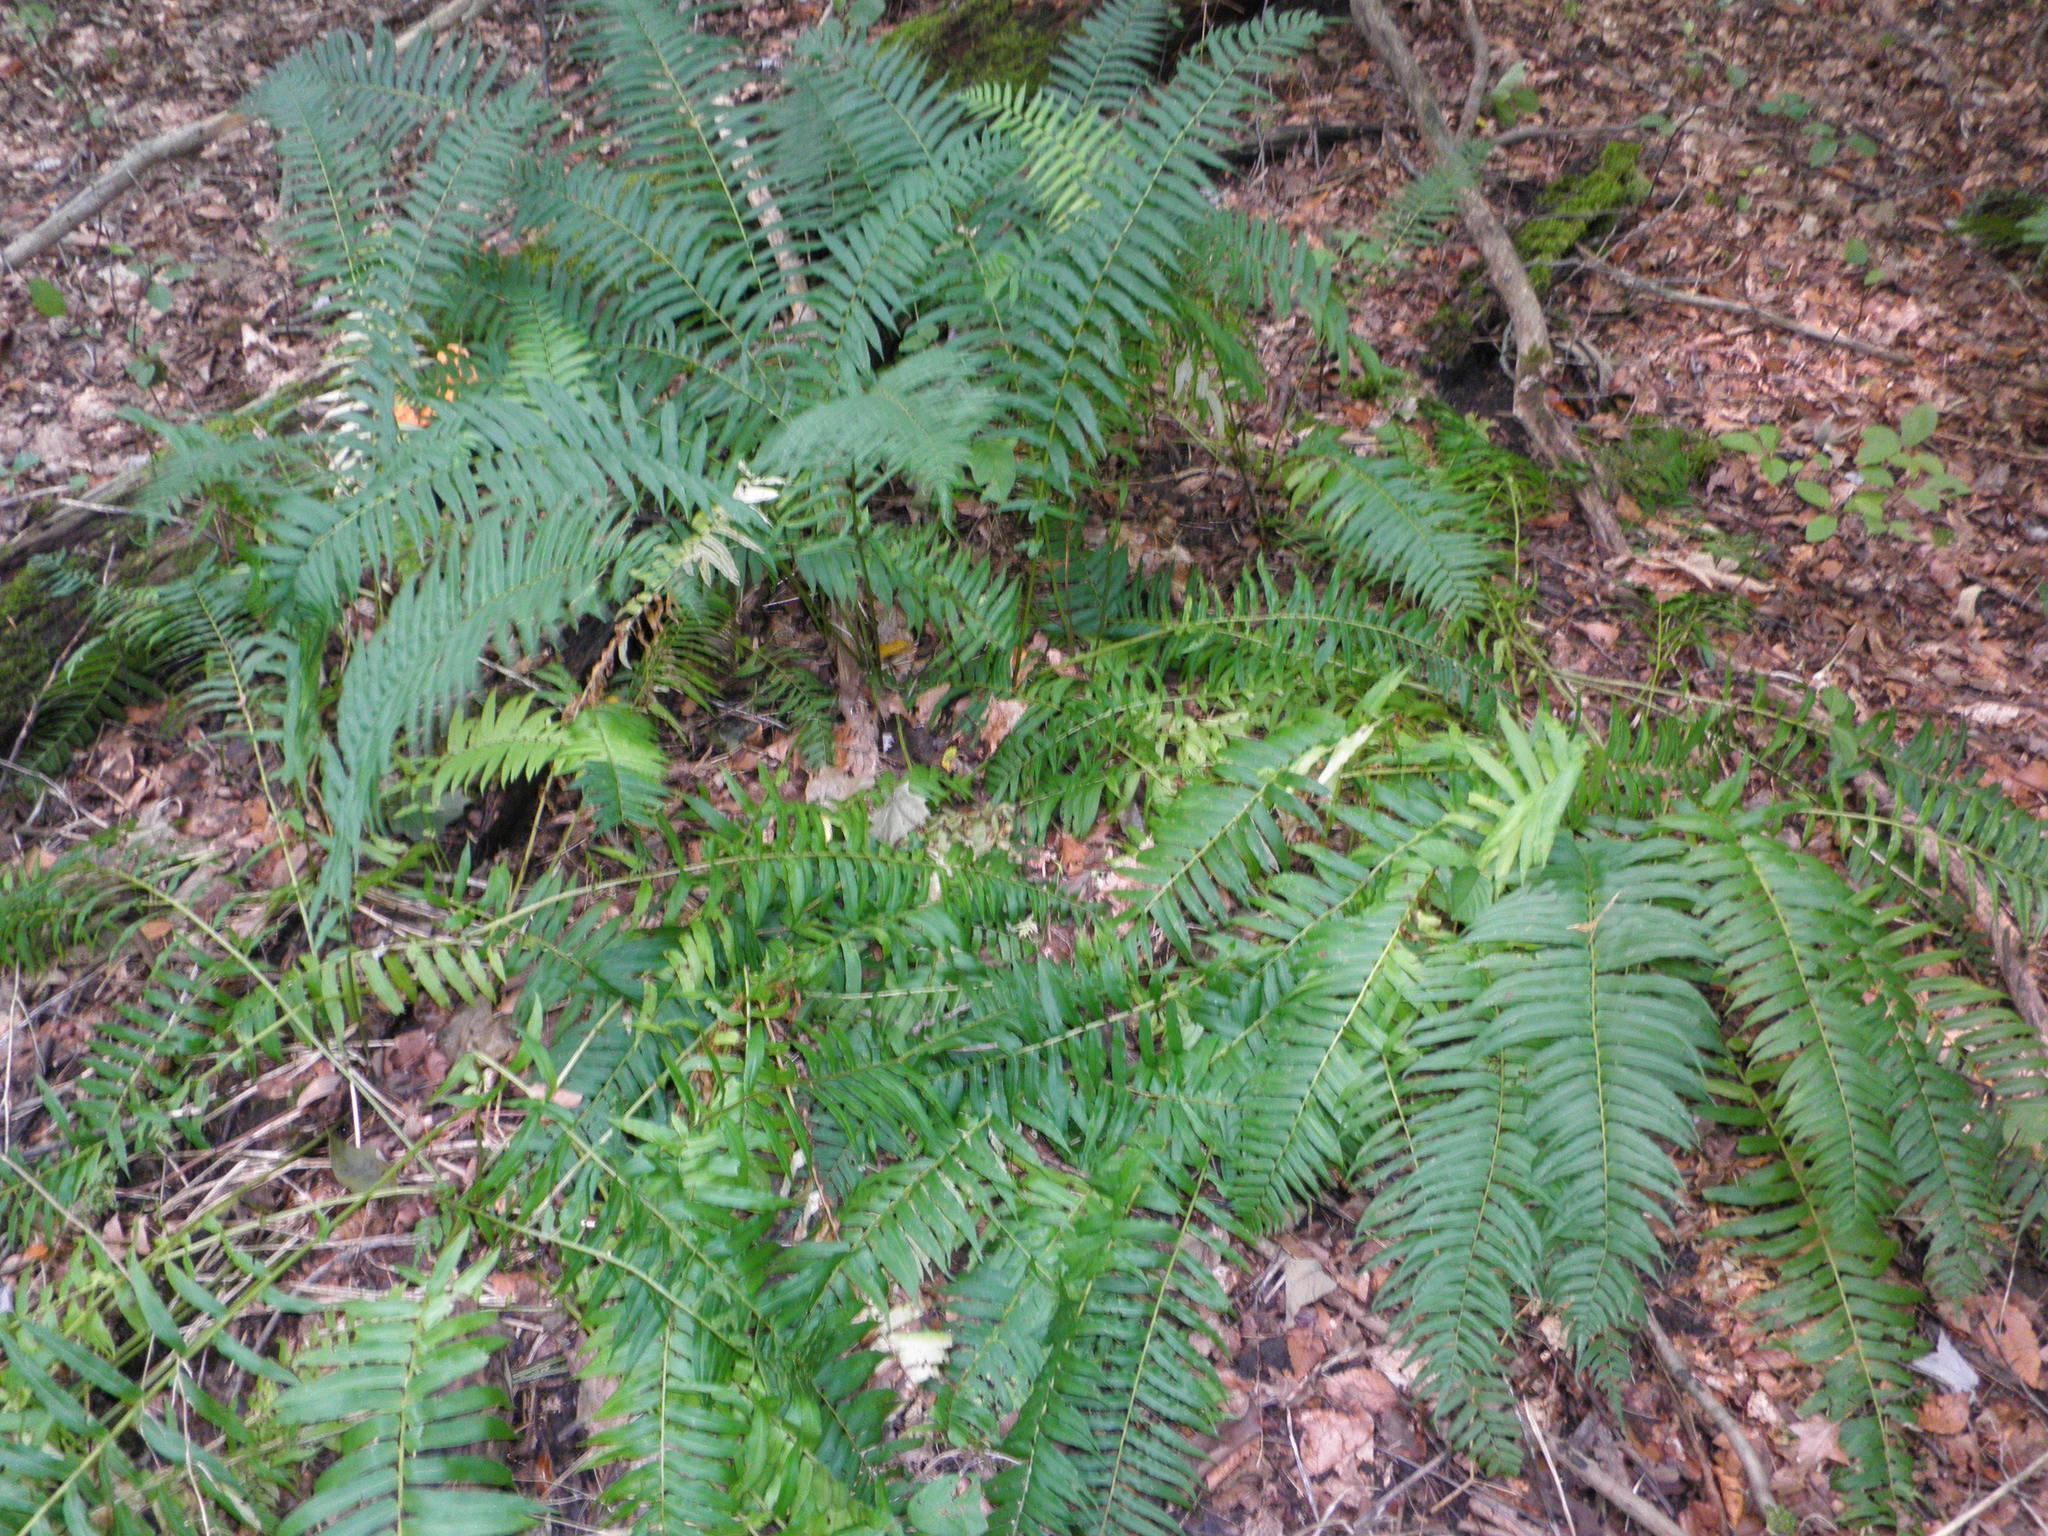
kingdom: Plantae
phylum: Tracheophyta
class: Polypodiopsida
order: Polypodiales
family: Diplaziopsidaceae
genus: Homalosorus
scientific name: Homalosorus pycnocarpos
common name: Glade fern
